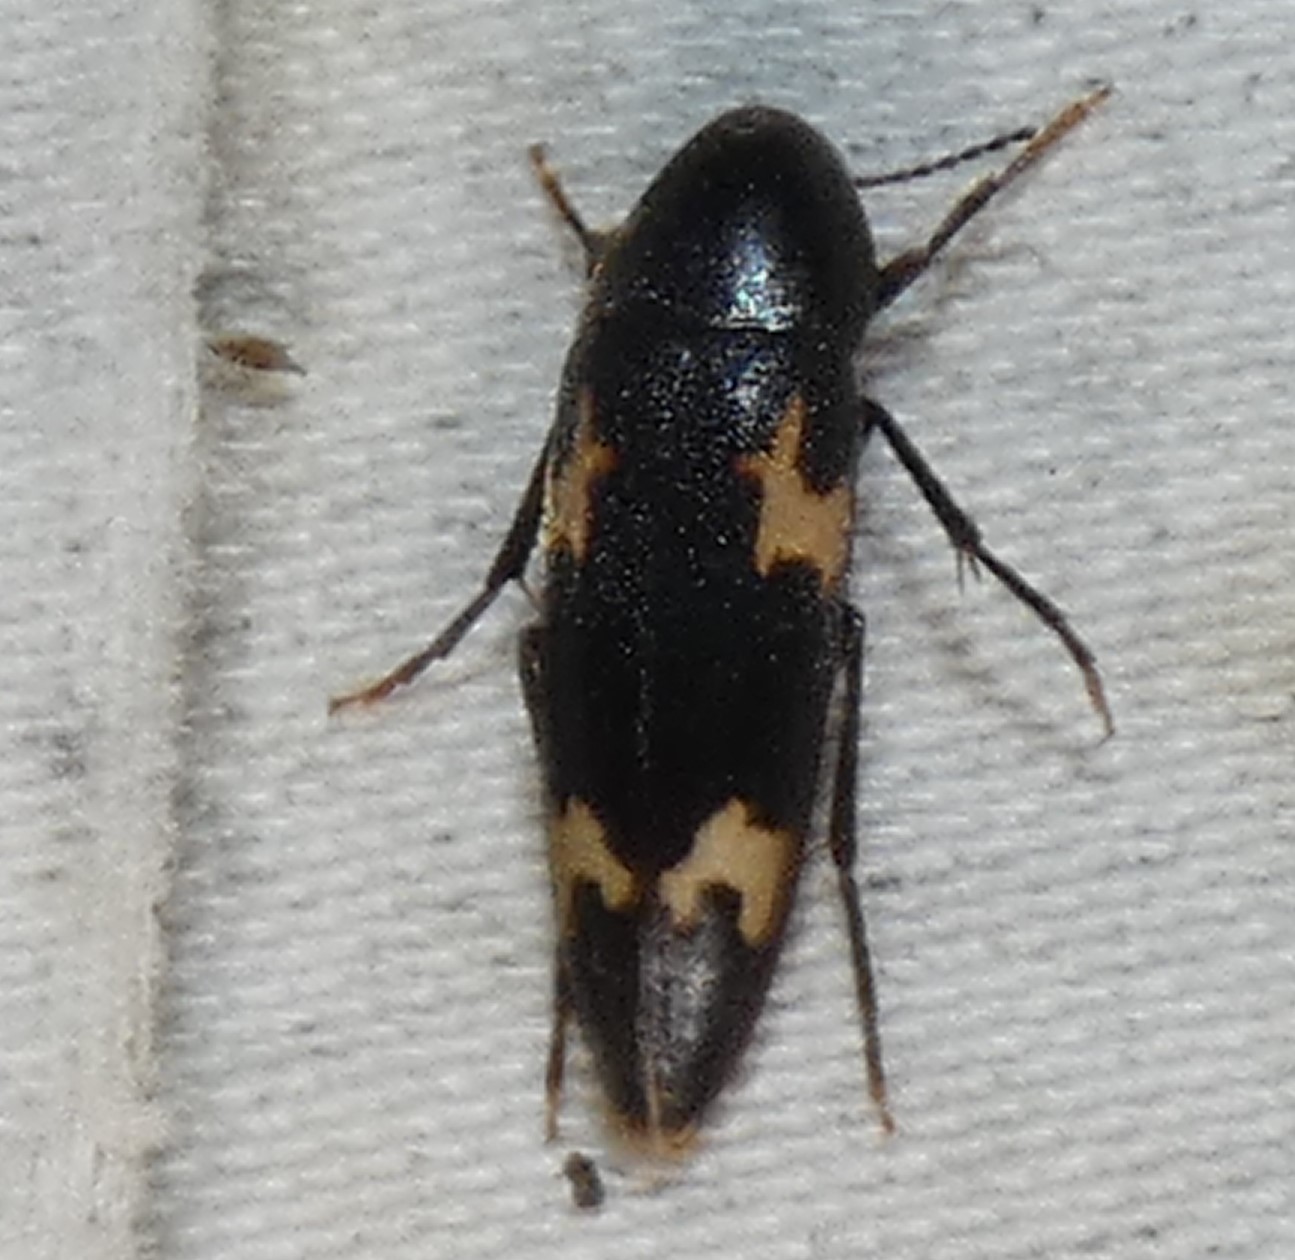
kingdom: Animalia
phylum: Arthropoda
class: Insecta
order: Coleoptera
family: Melandryidae
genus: Dircaea
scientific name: Dircaea liturata
